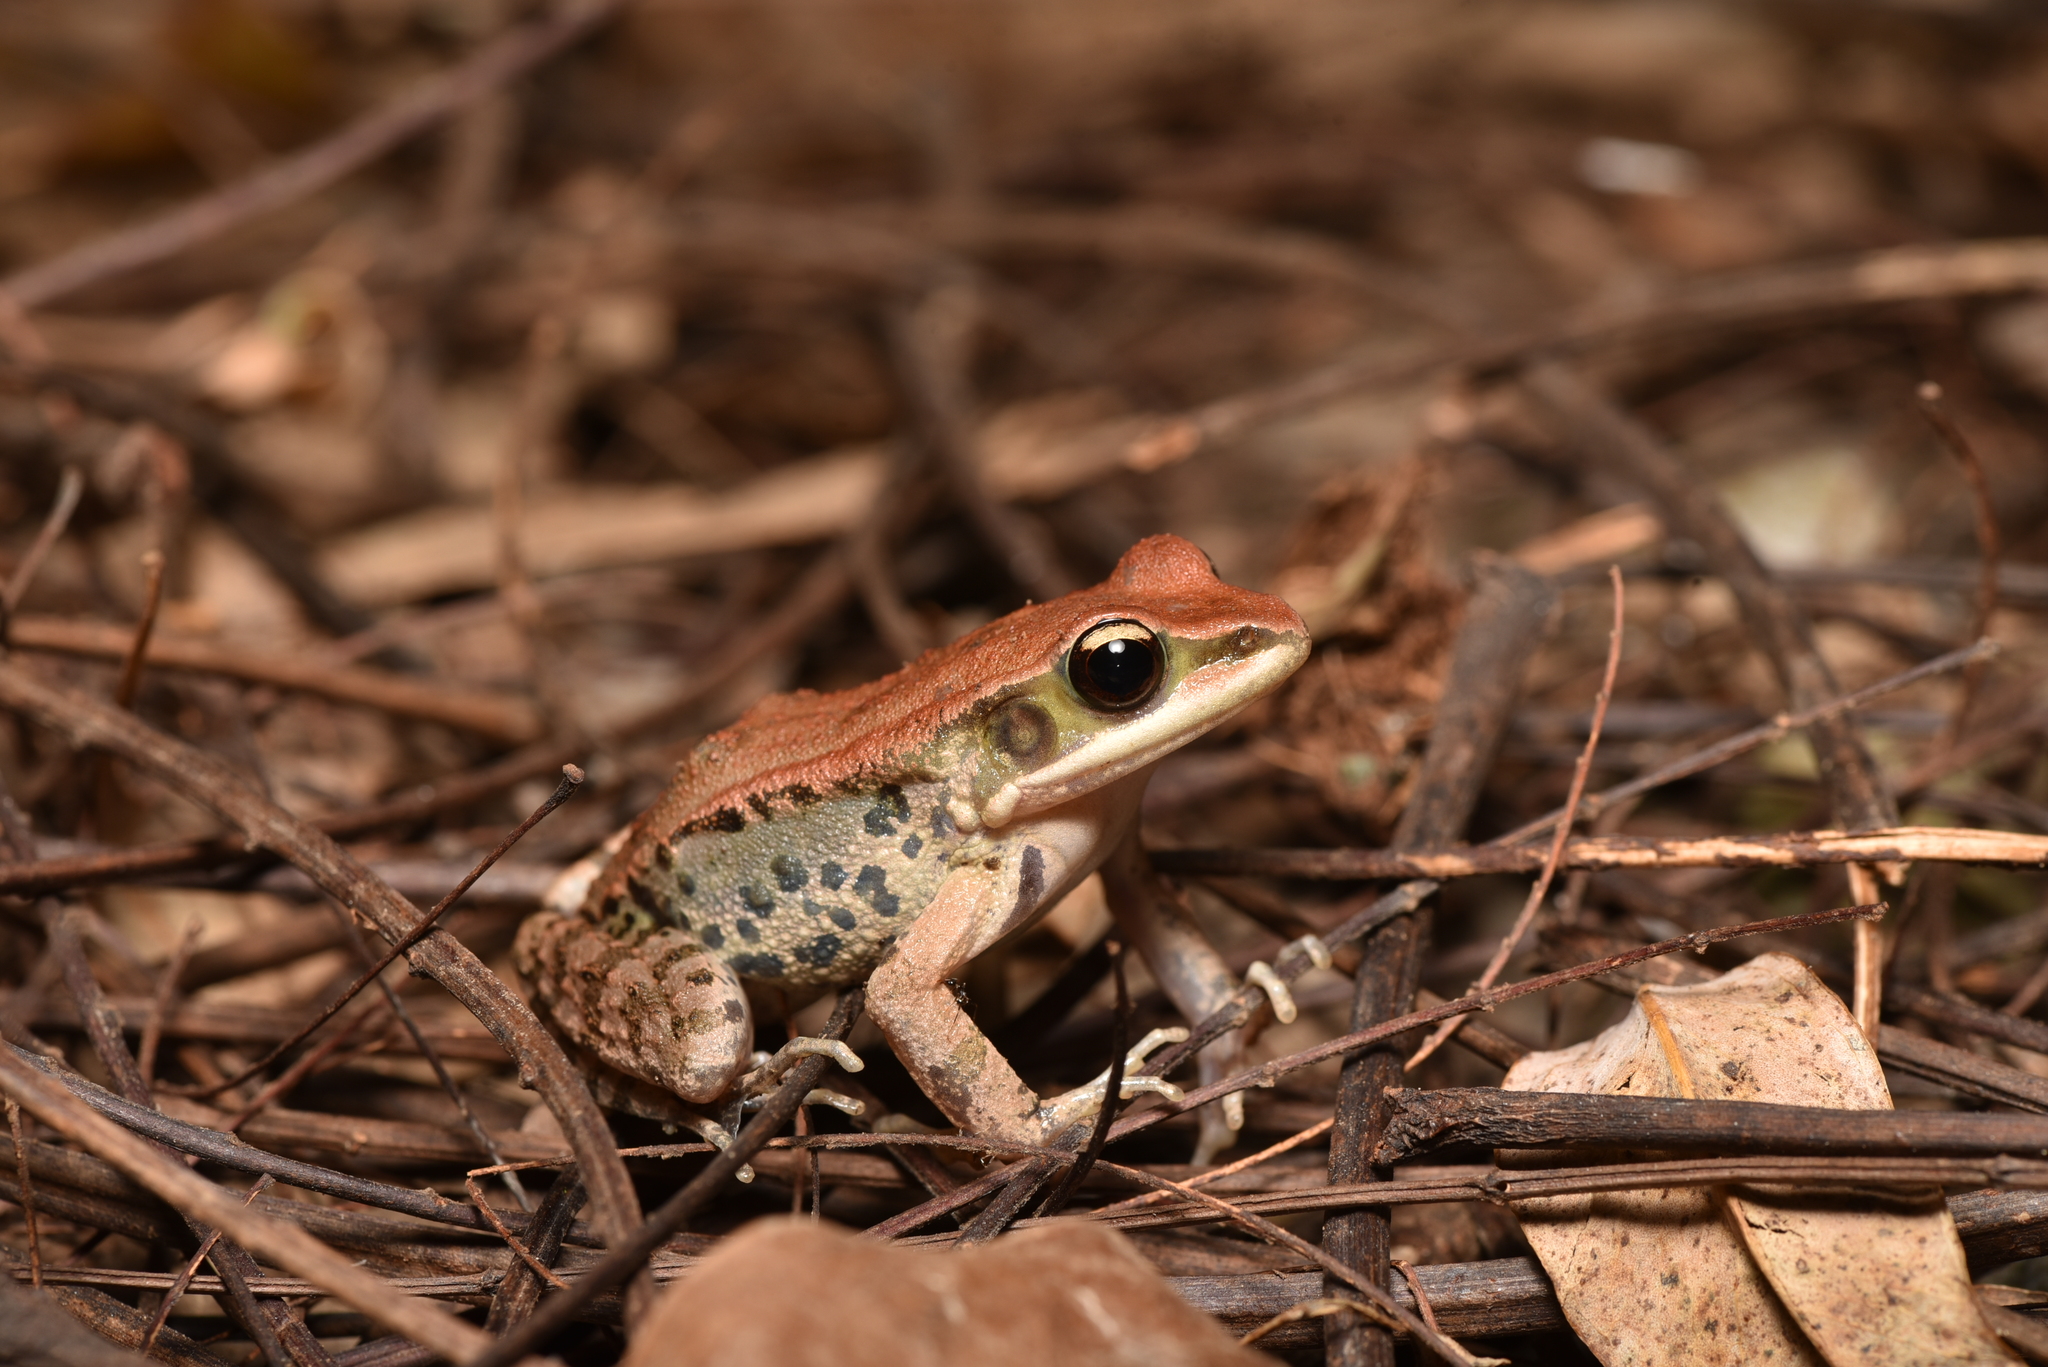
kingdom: Animalia
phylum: Chordata
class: Amphibia
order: Anura
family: Ranidae
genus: Hylarana
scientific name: Hylarana latouchii
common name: Broad-folded frog
